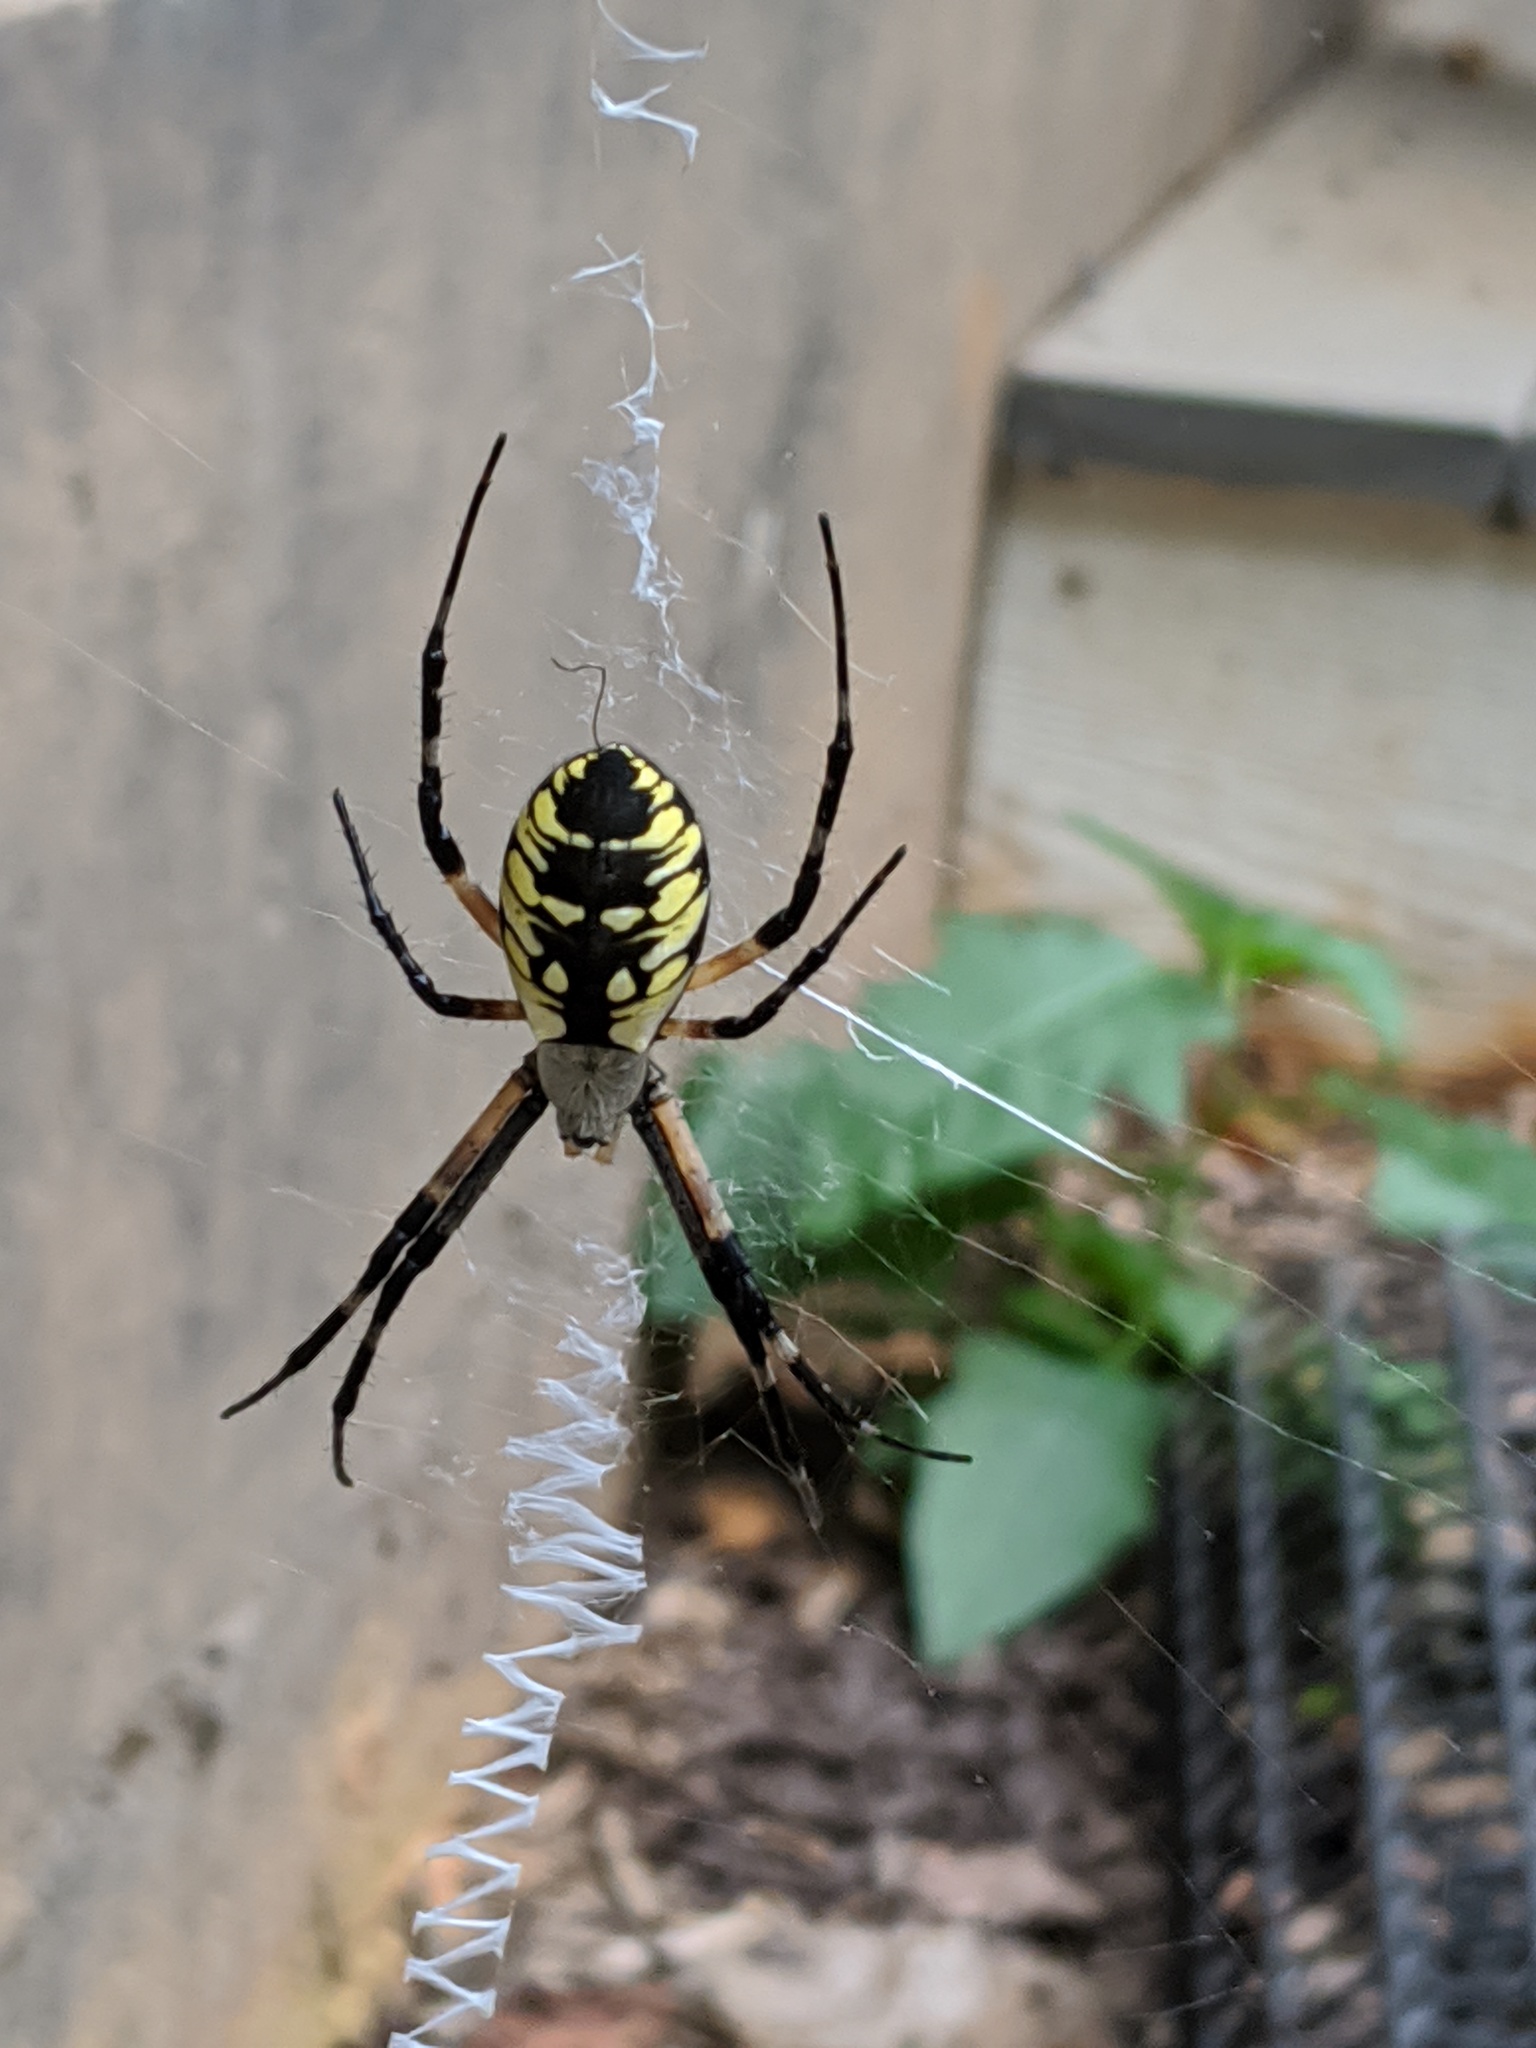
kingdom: Animalia
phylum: Arthropoda
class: Arachnida
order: Araneae
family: Araneidae
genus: Argiope
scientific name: Argiope aurantia
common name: Orb weavers
